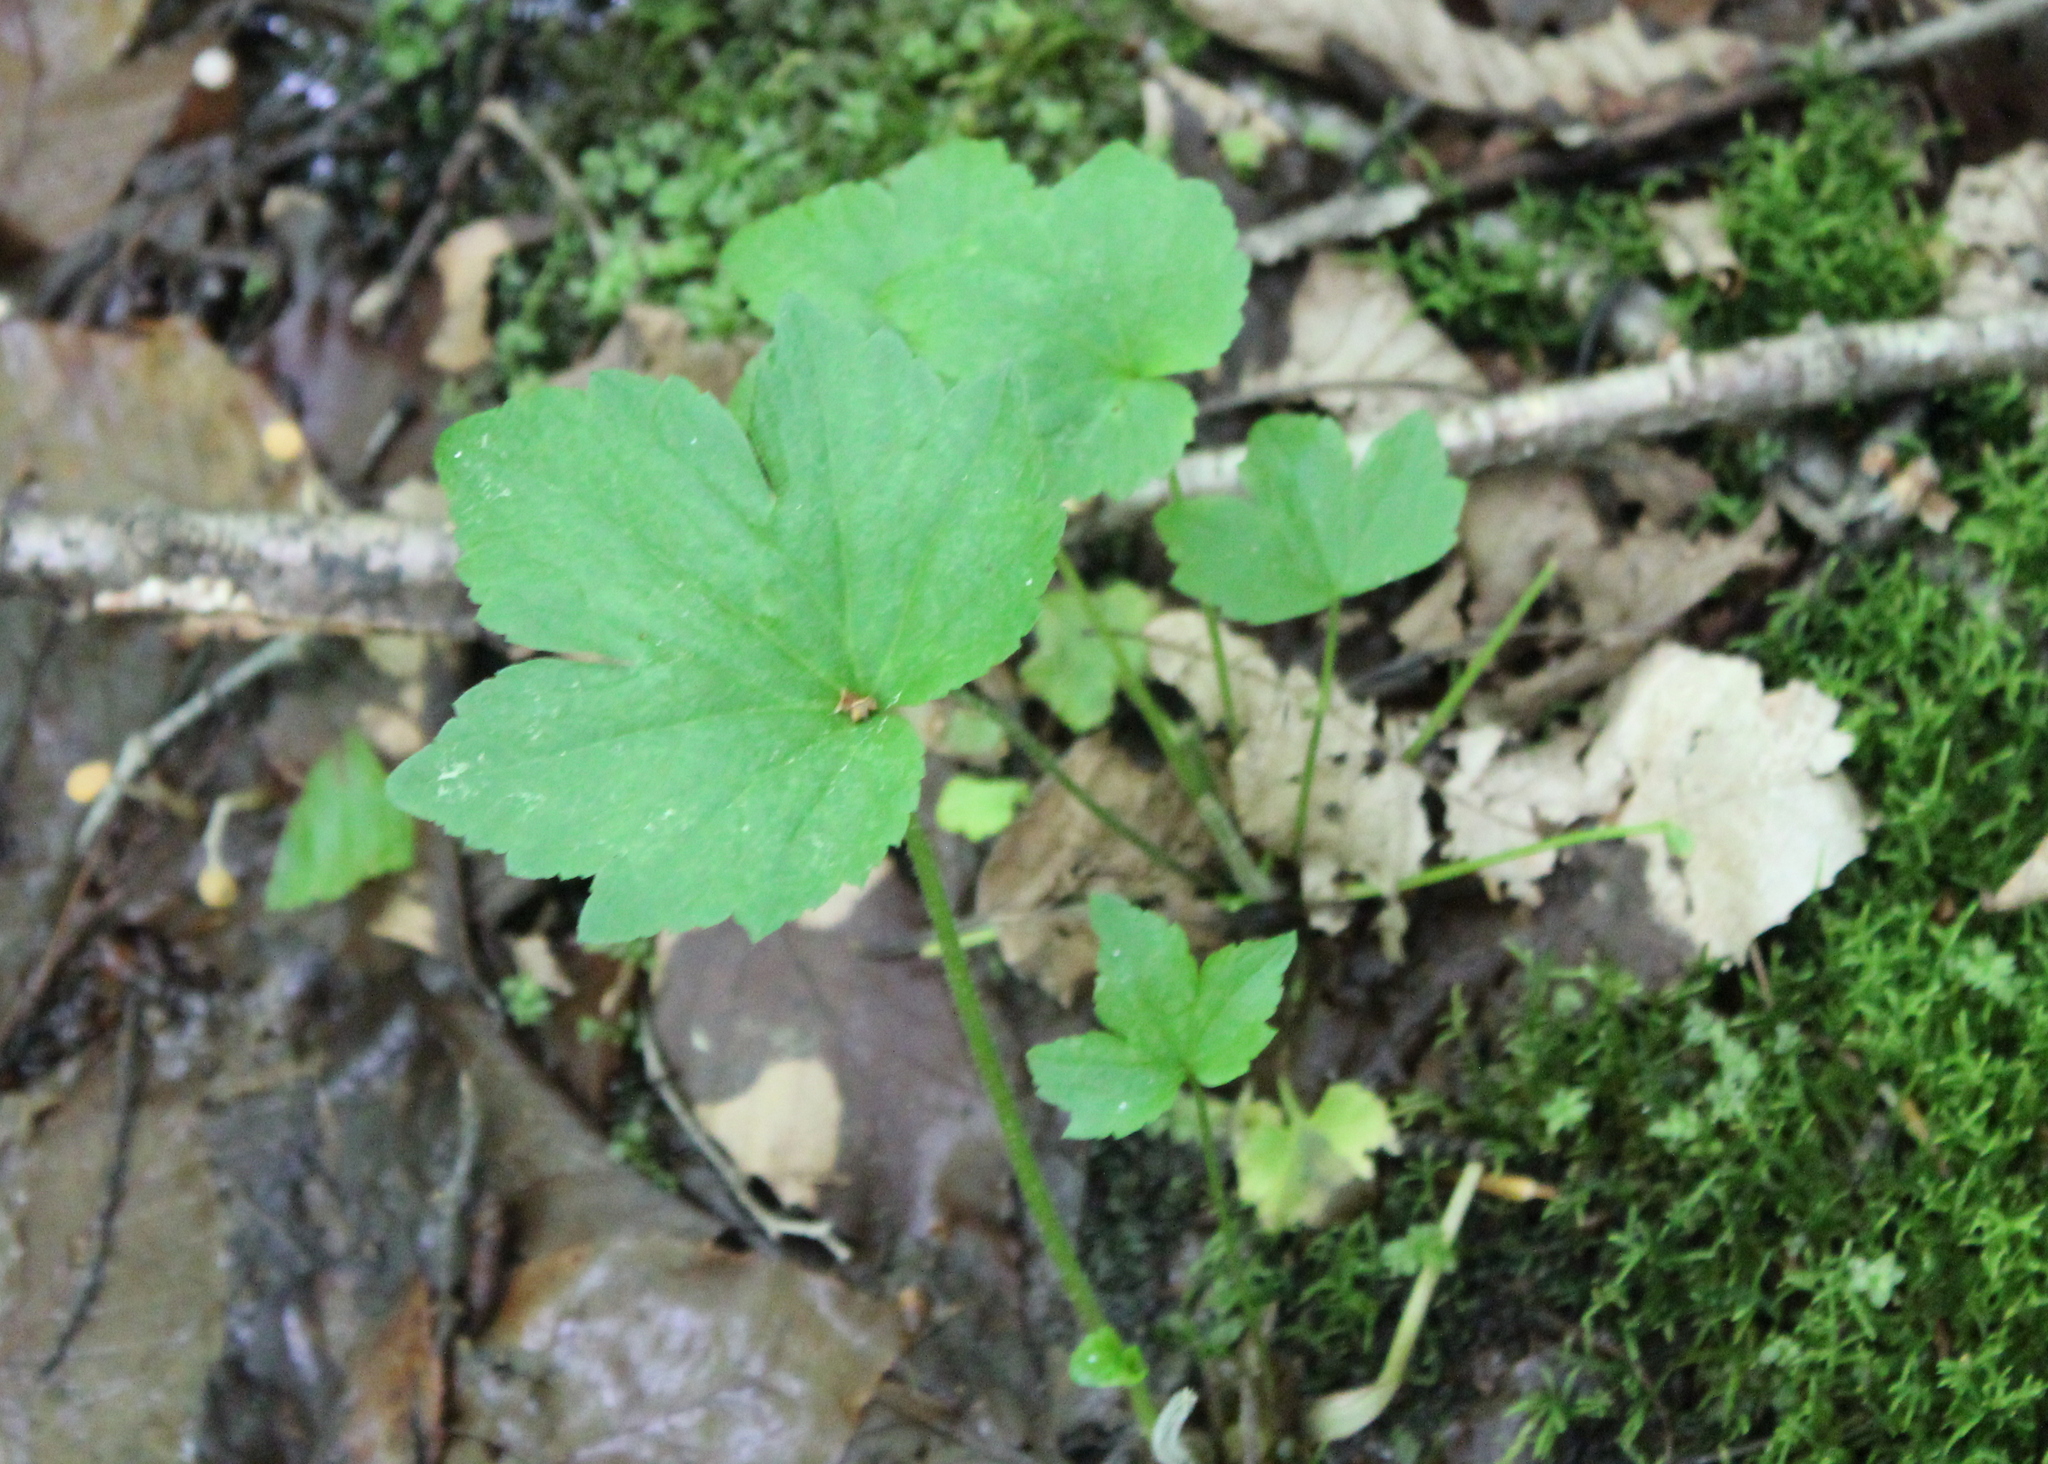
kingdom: Plantae
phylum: Tracheophyta
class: Magnoliopsida
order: Ranunculales
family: Ranunculaceae
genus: Ranunculus
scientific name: Ranunculus recurvatus
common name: Blisterwort
